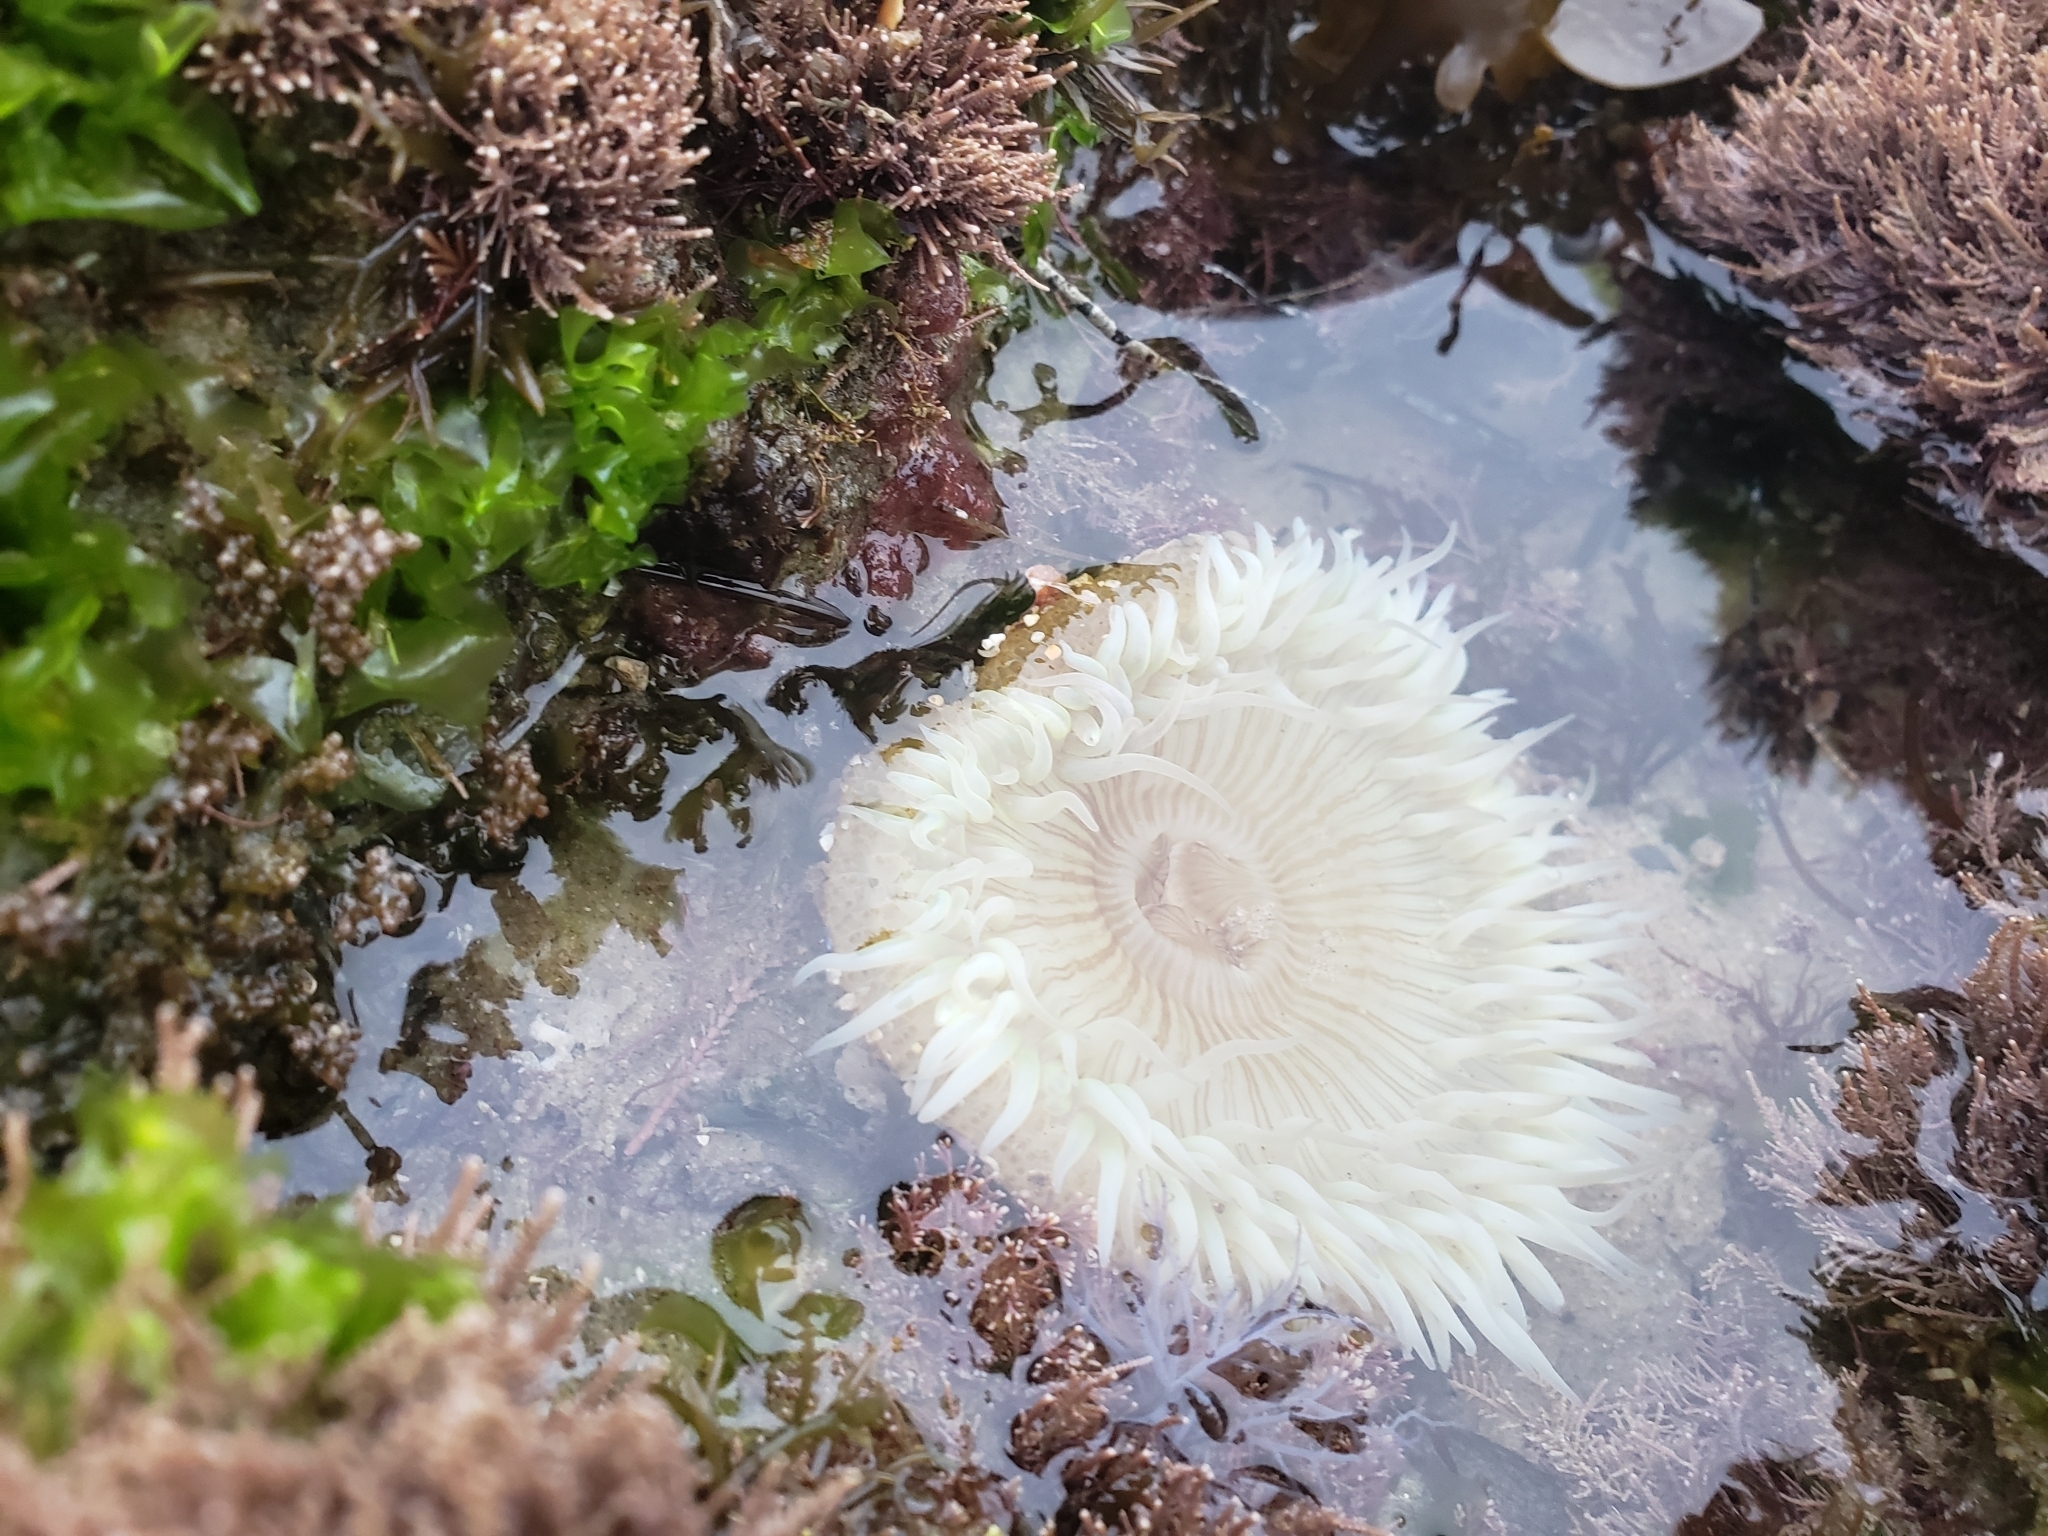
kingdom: Animalia
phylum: Cnidaria
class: Anthozoa
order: Actiniaria
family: Actiniidae
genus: Anthopleura
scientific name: Anthopleura sola
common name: Sun anemone
